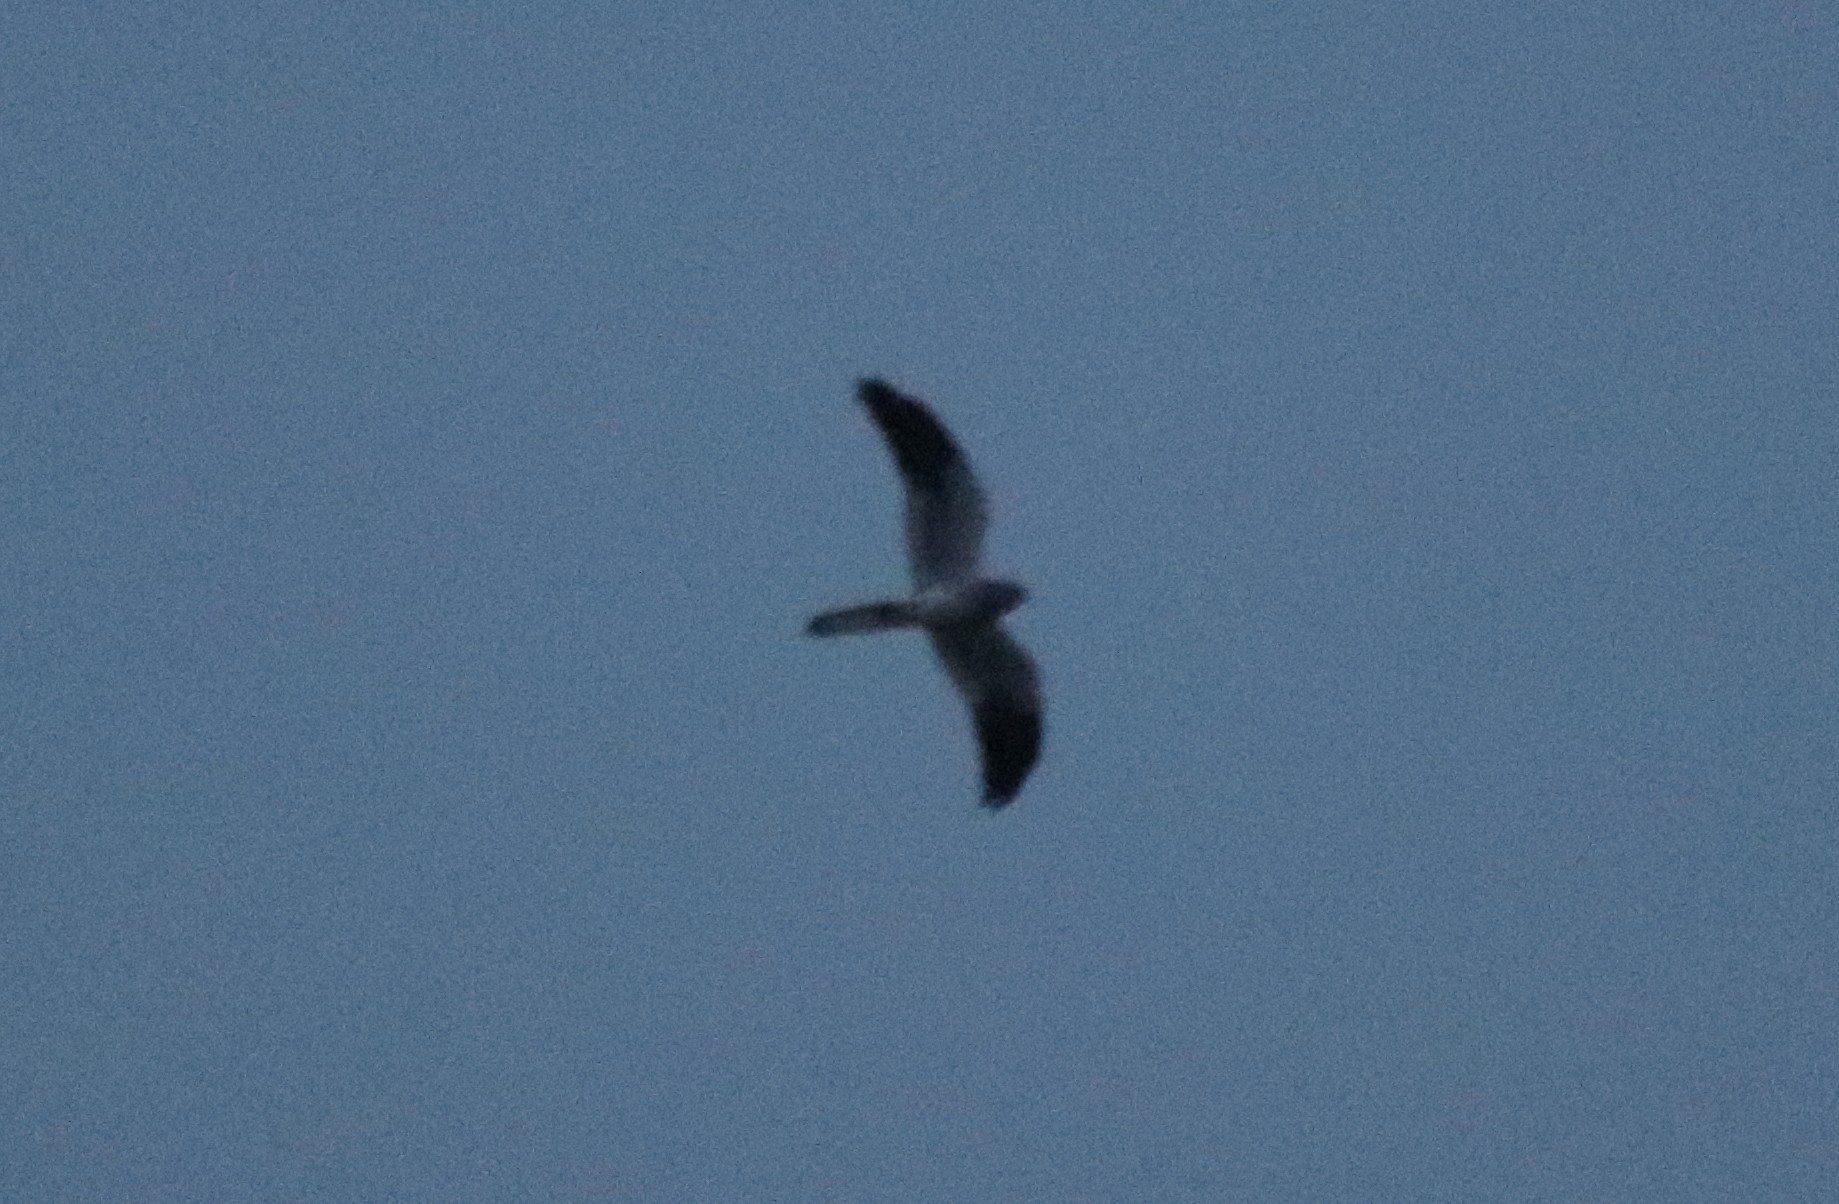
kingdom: Animalia
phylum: Chordata
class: Aves
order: Accipitriformes
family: Accipitridae
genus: Circus
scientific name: Circus pygargus
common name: Montagu's harrier
